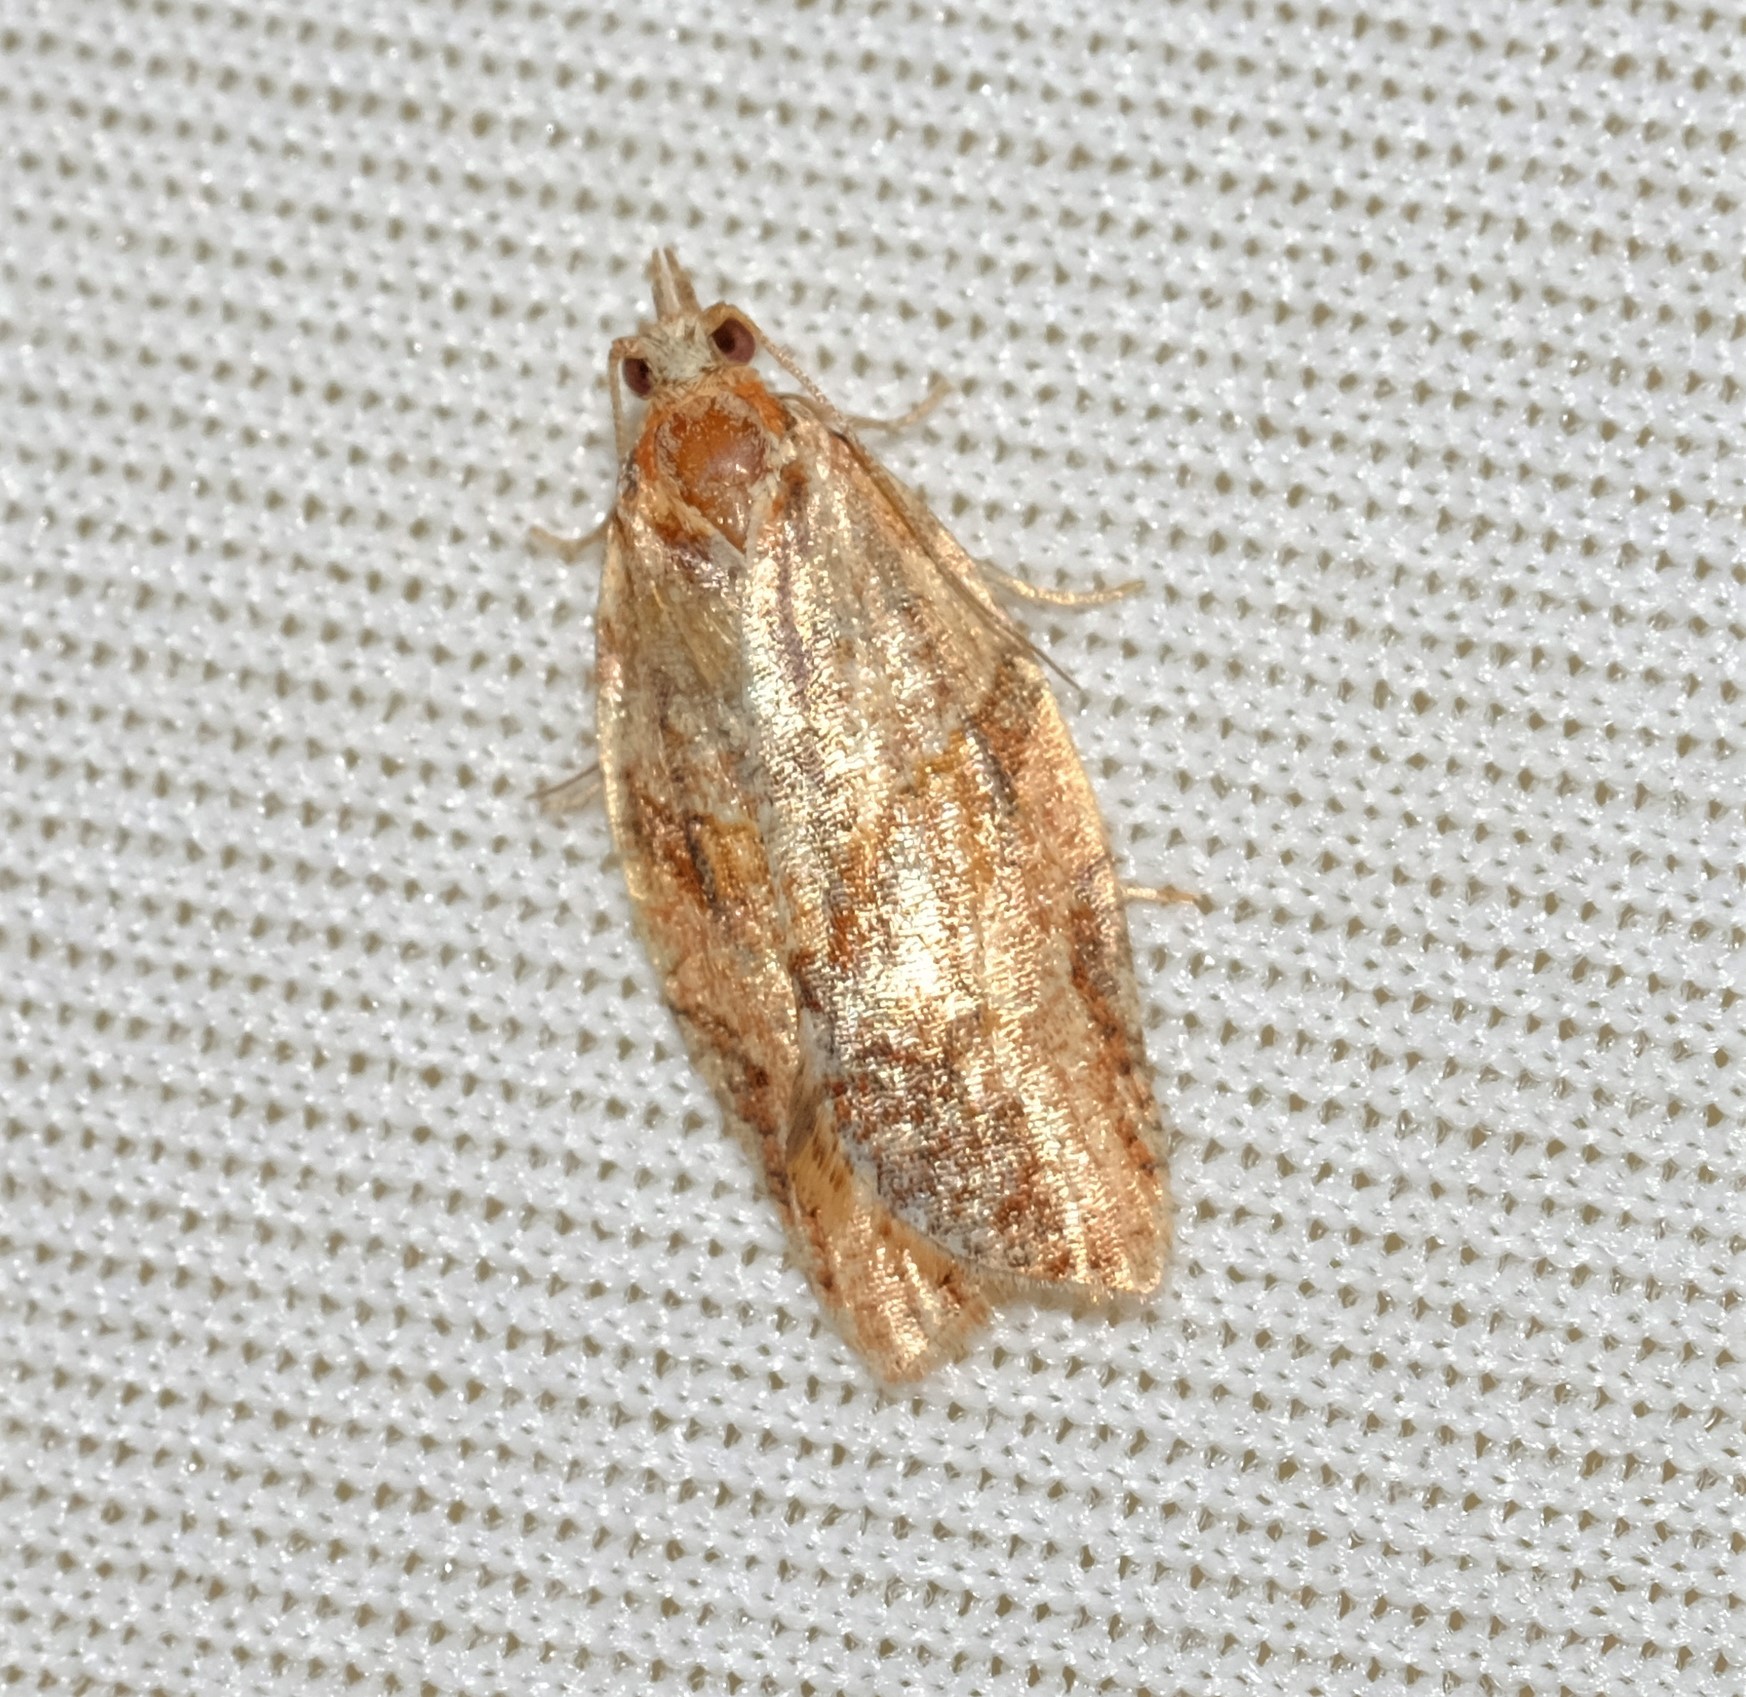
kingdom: Animalia
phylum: Arthropoda
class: Insecta
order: Lepidoptera
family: Tortricidae
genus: Epiphyas
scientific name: Epiphyas postvittana
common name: Light brown apple moth
